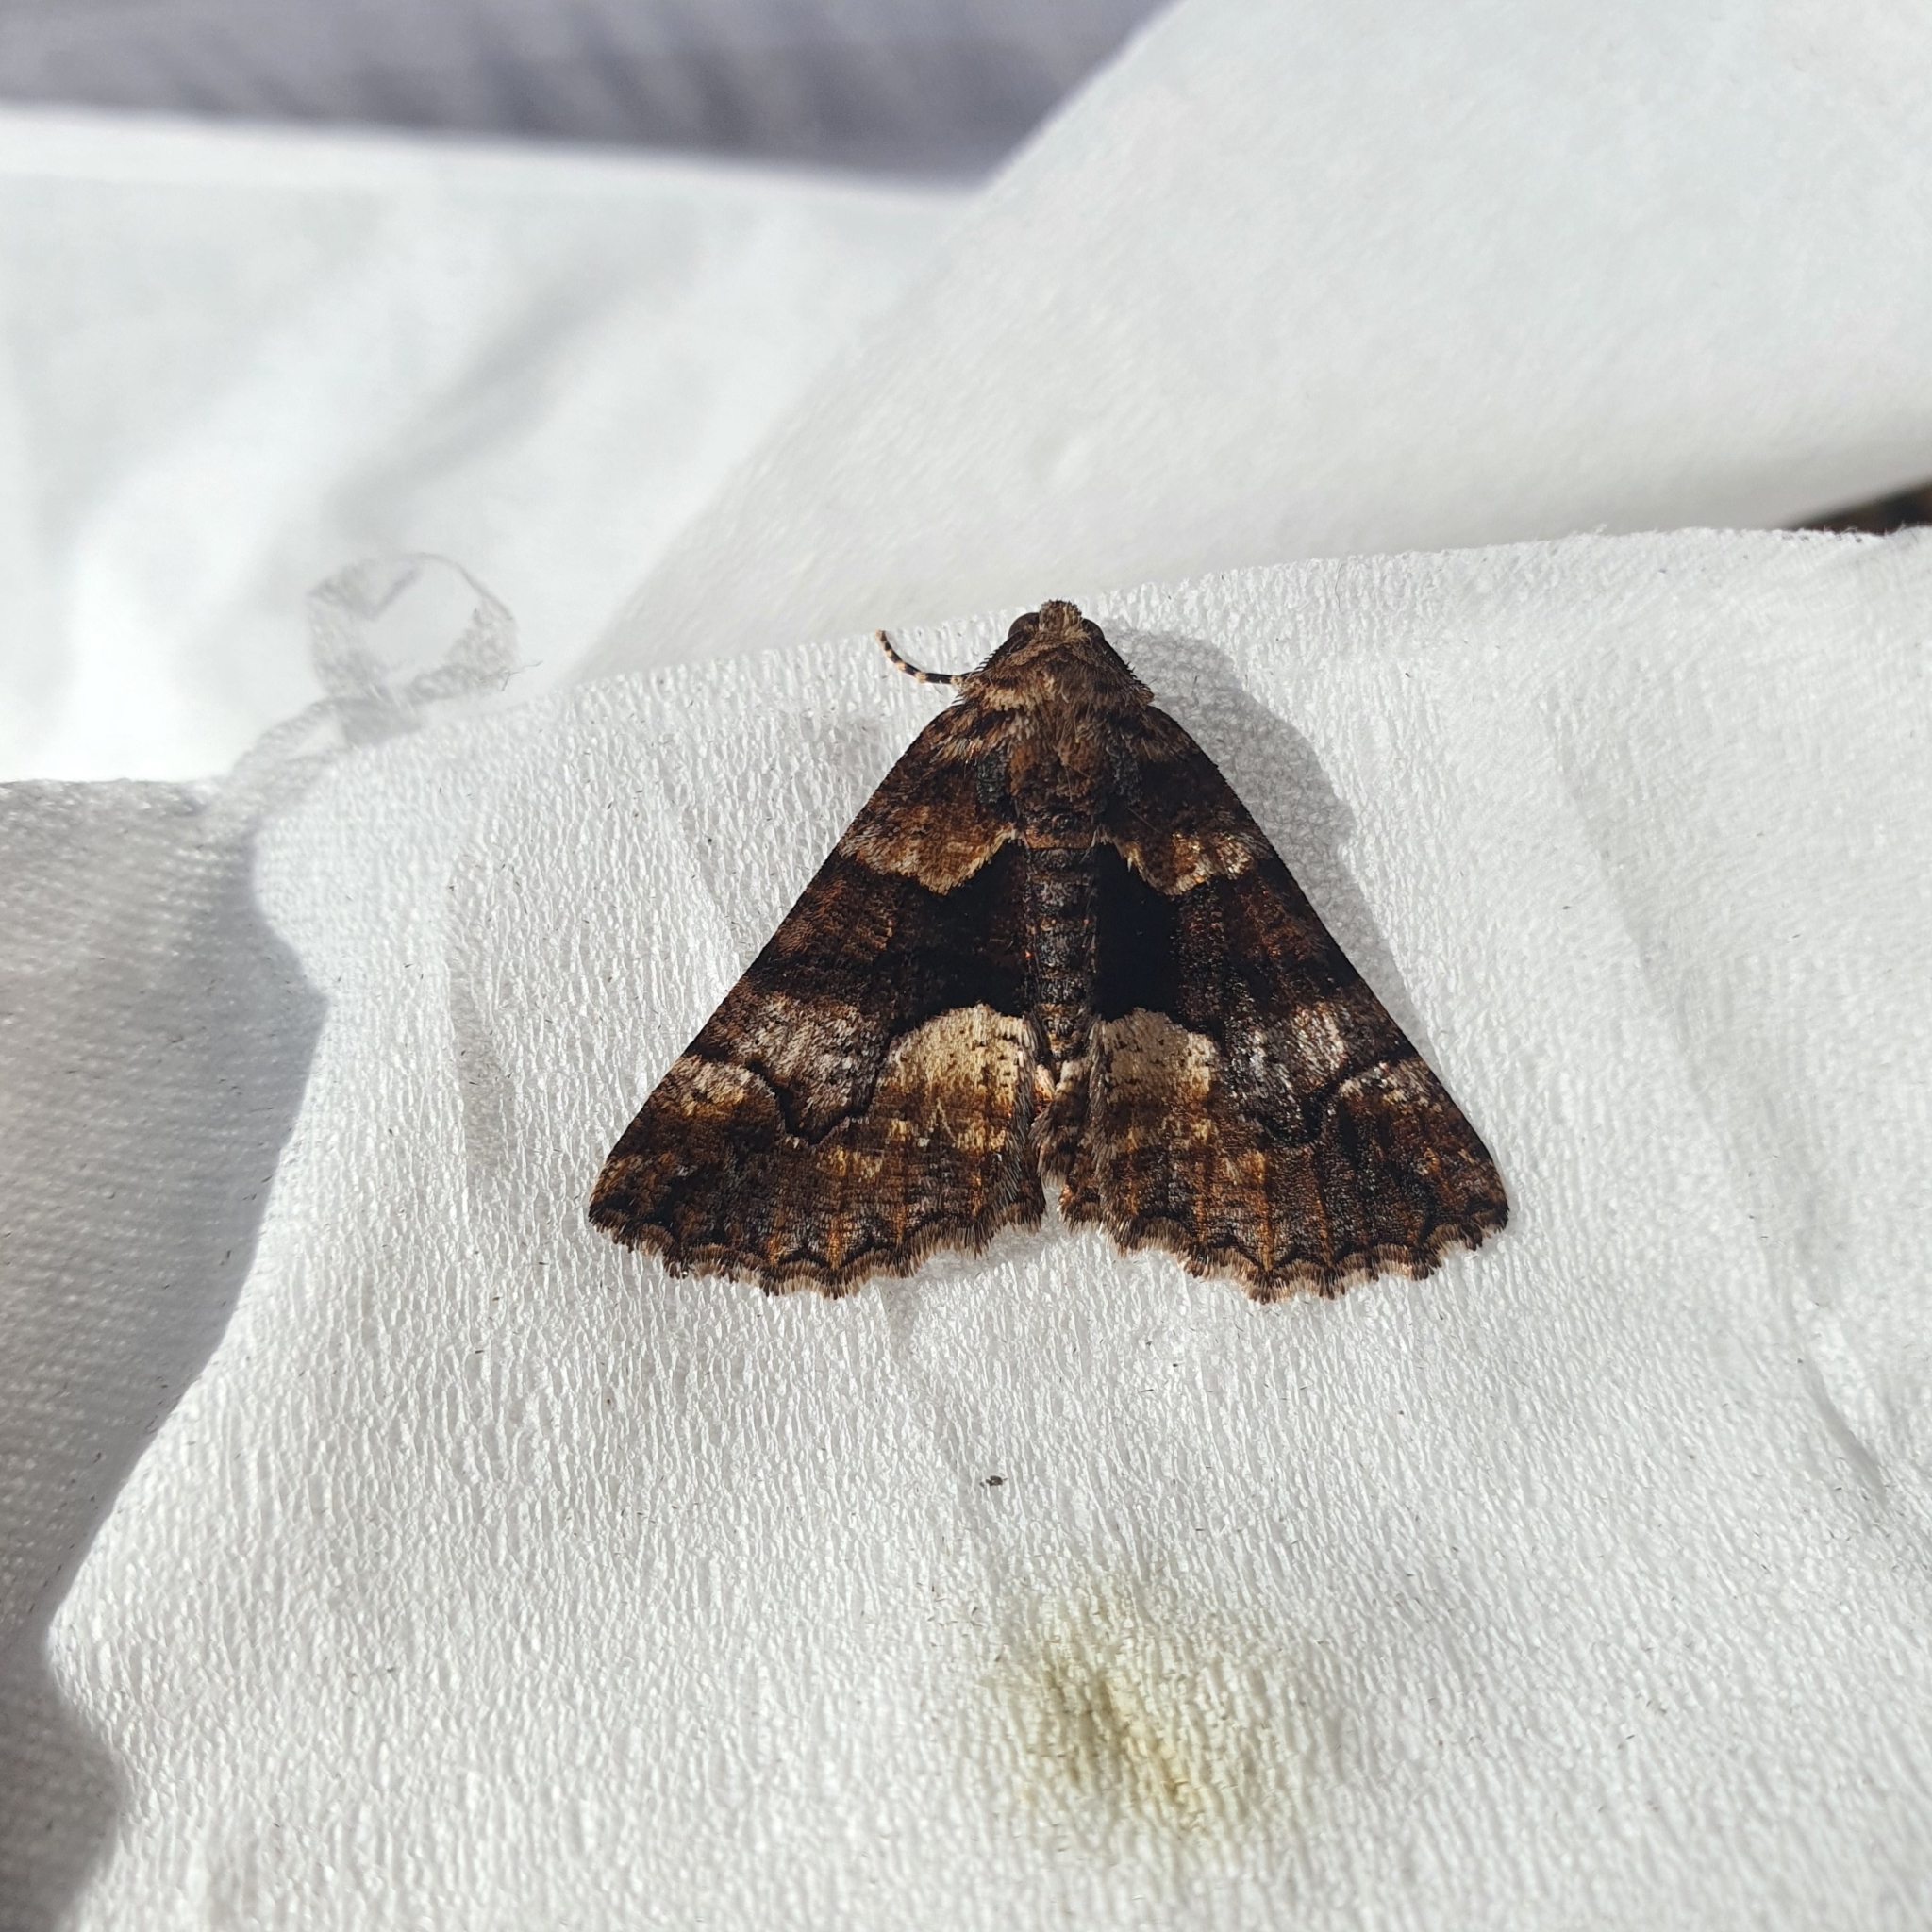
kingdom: Animalia
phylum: Arthropoda
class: Insecta
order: Lepidoptera
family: Geometridae
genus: Gastrina
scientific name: Gastrina cristaria
